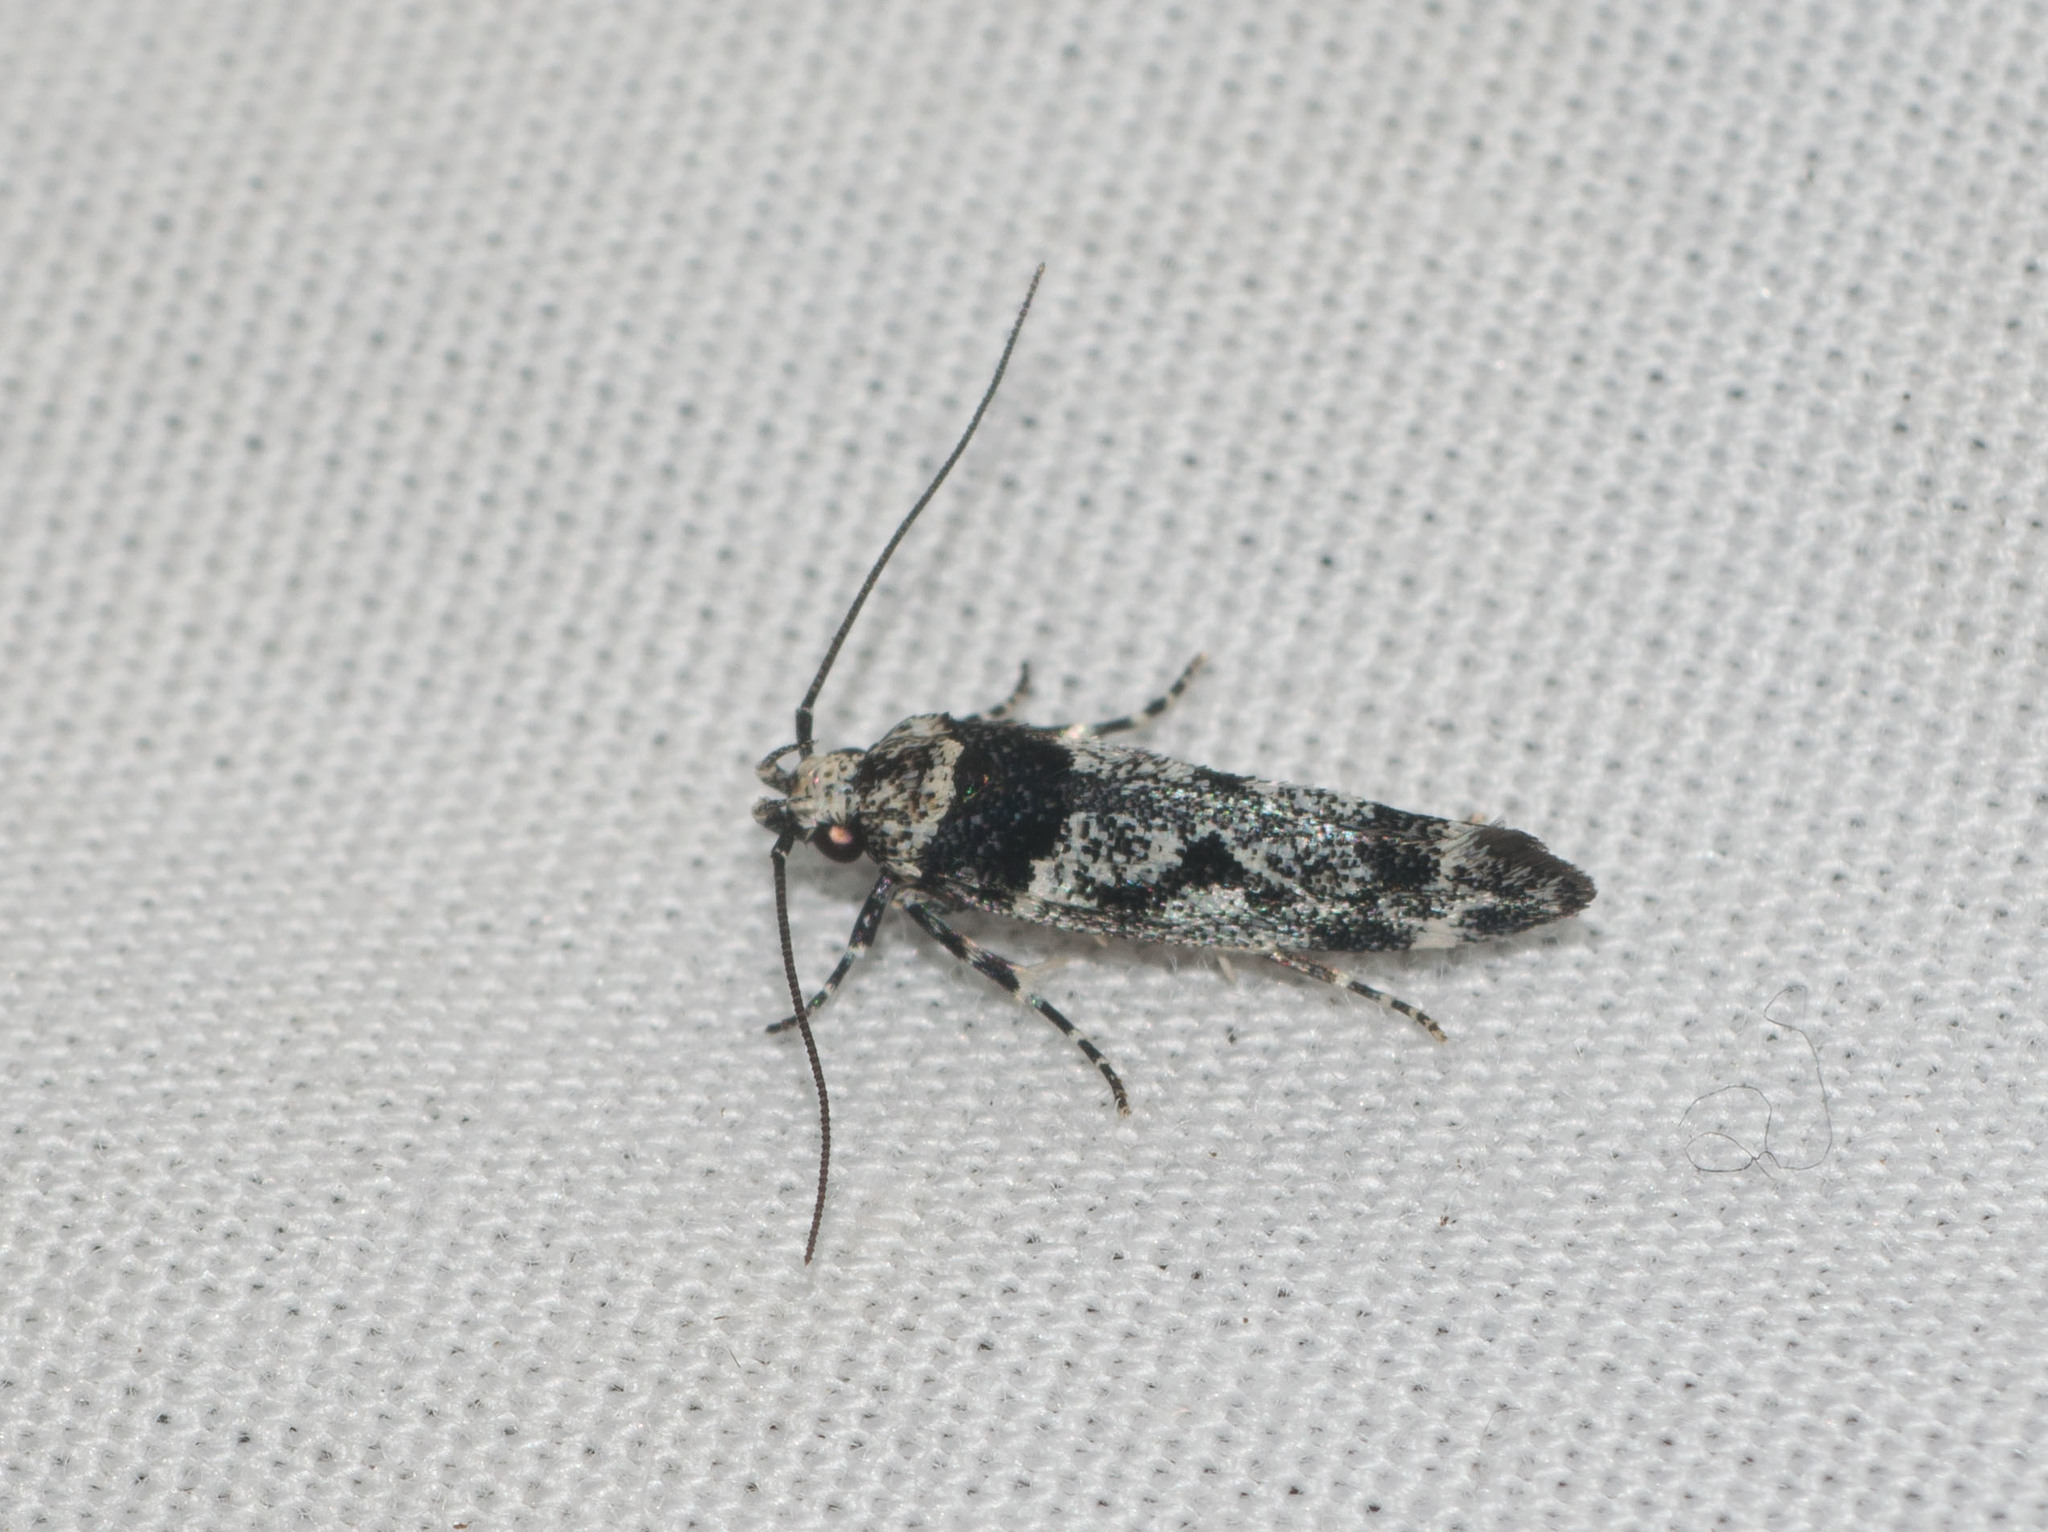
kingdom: Animalia
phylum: Arthropoda
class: Insecta
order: Lepidoptera
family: Cosmopterigidae
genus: Hyposmochoma
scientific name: Hyposmochoma empedota
